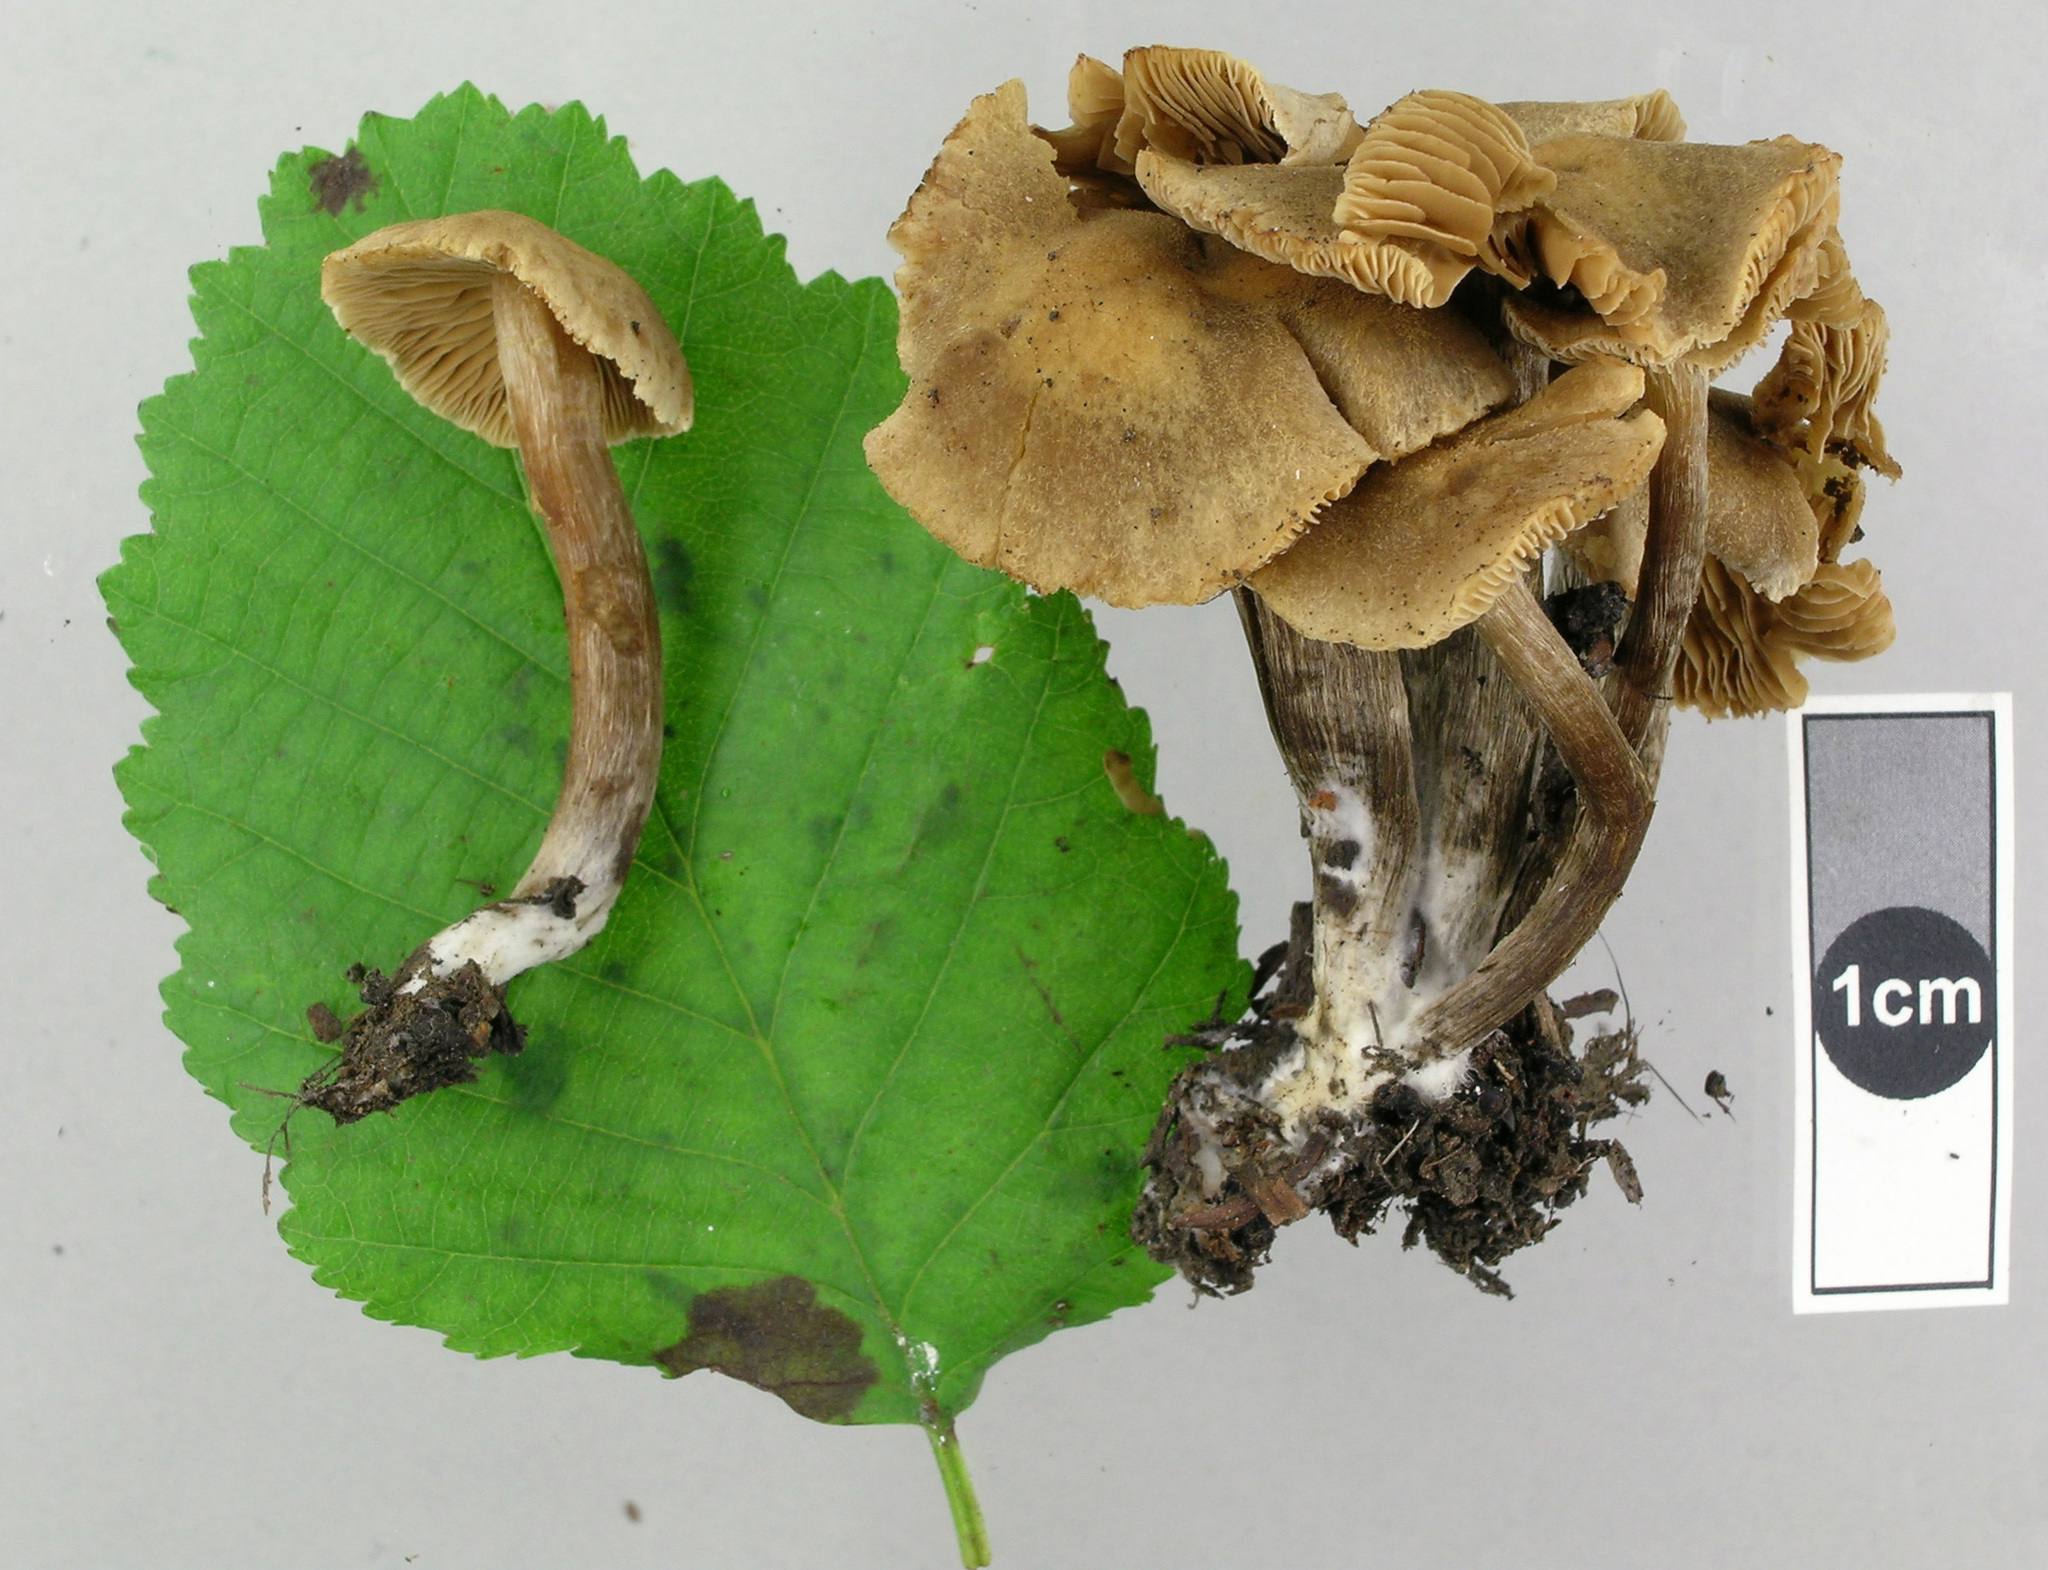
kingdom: Fungi
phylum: Basidiomycota
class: Agaricomycetes
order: Agaricales
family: Hymenogastraceae
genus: Naucoria
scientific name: Naucoria escharioides
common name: Ochre aldercap
